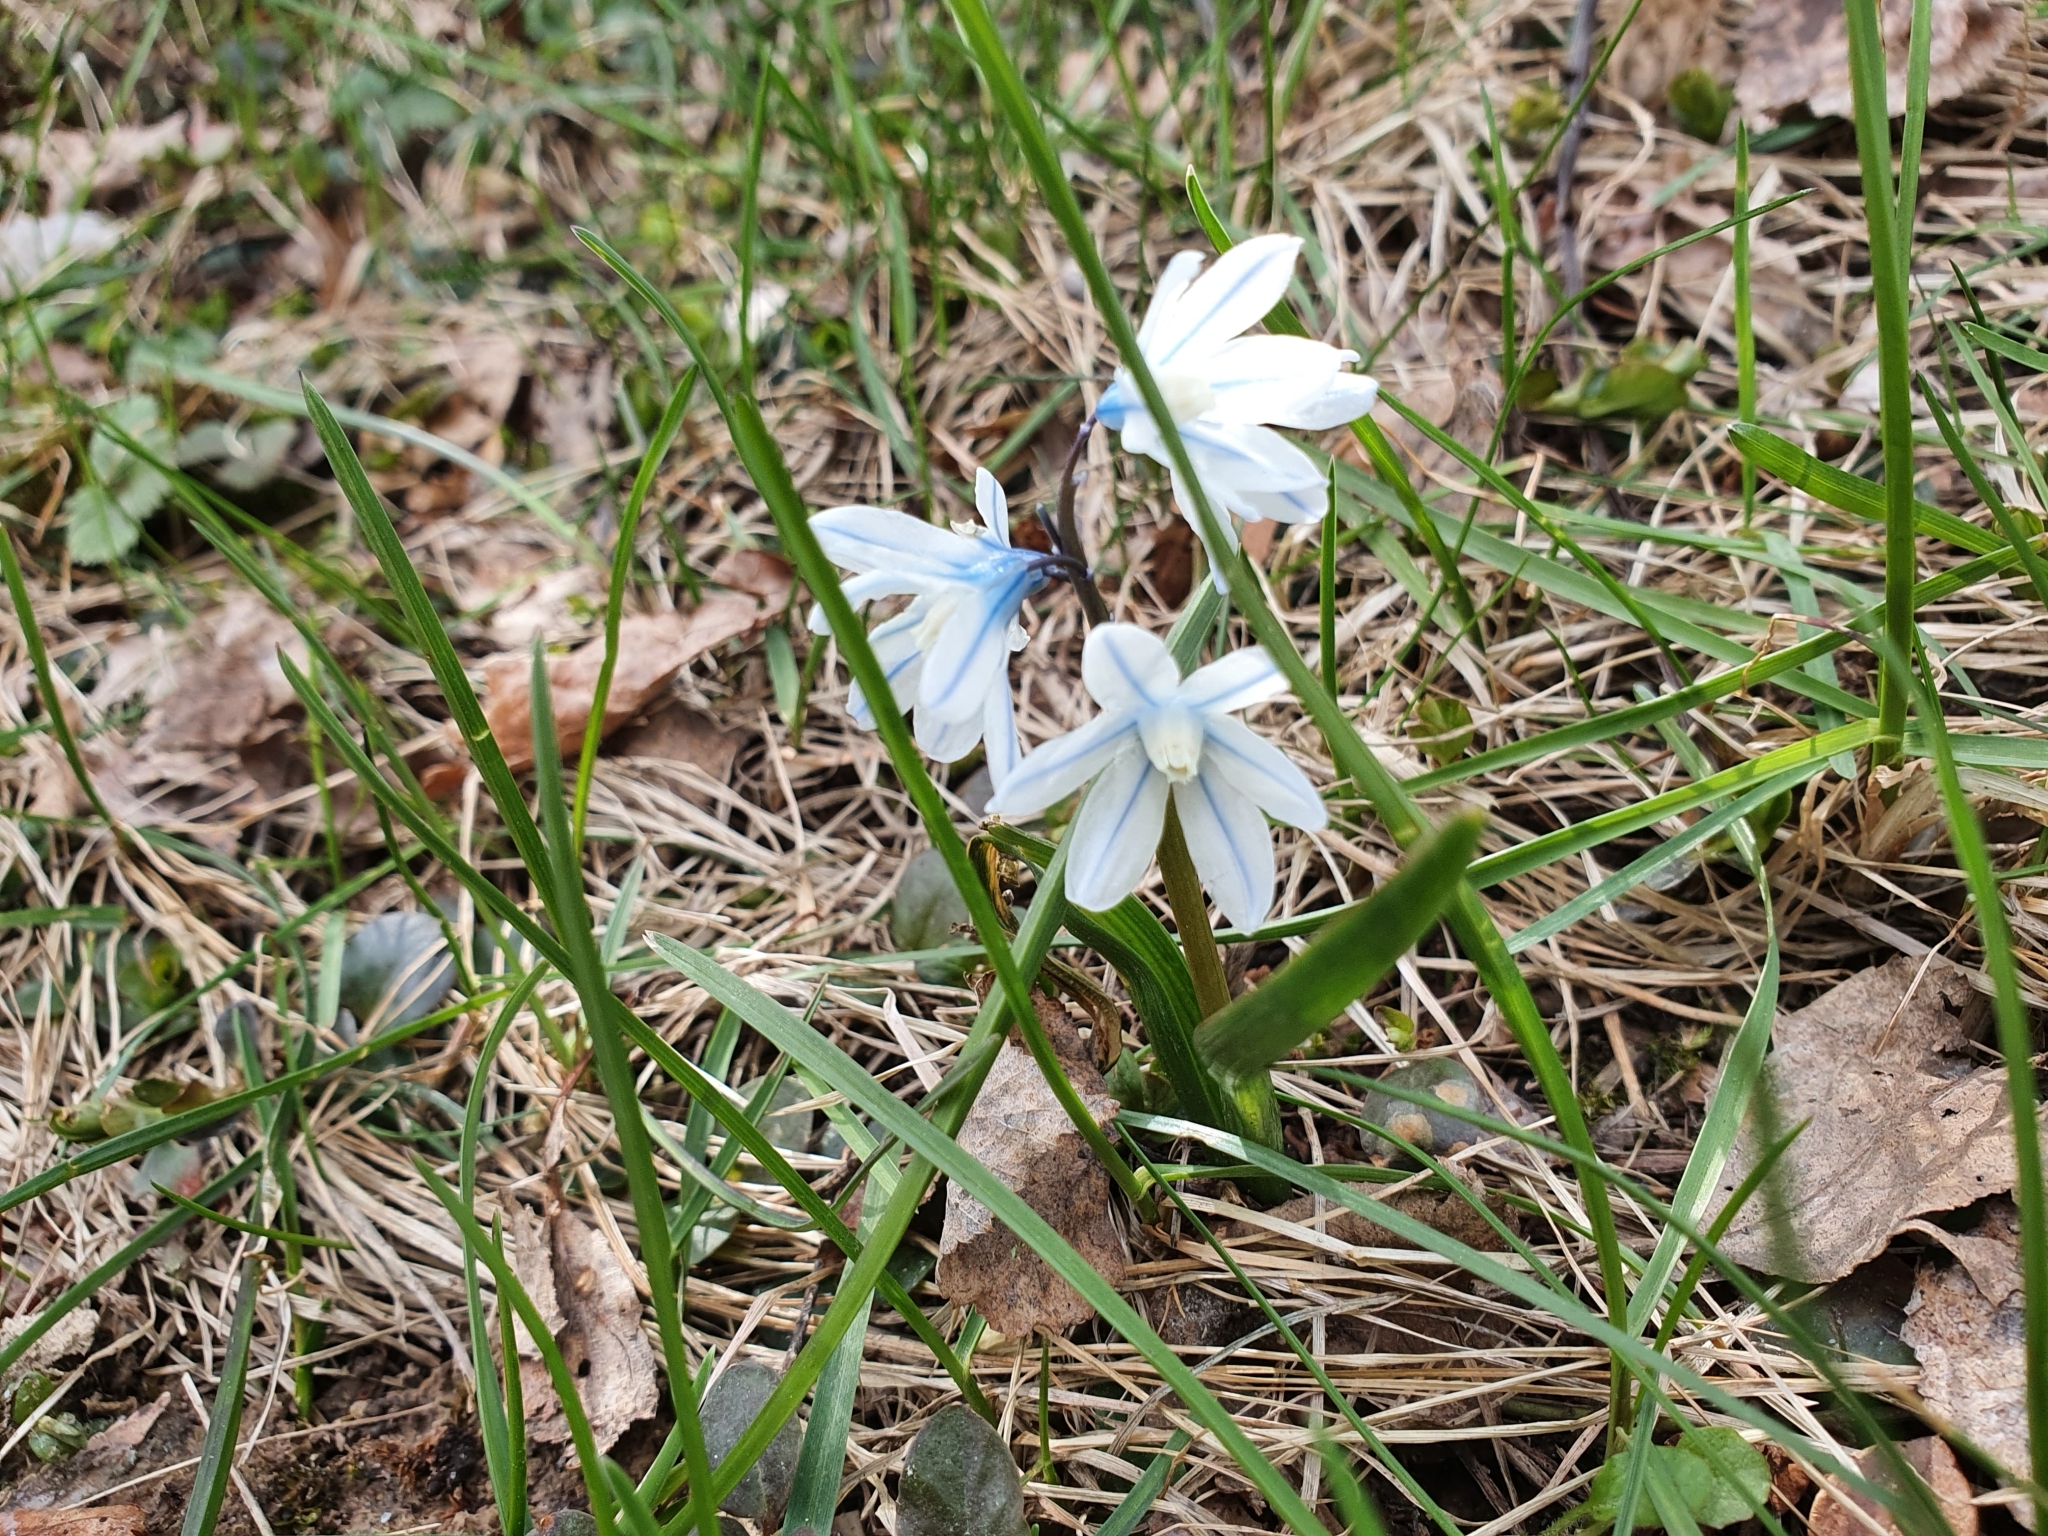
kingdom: Plantae
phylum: Tracheophyta
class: Liliopsida
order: Asparagales
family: Asparagaceae
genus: Puschkinia
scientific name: Puschkinia scilloides
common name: Striped squill
